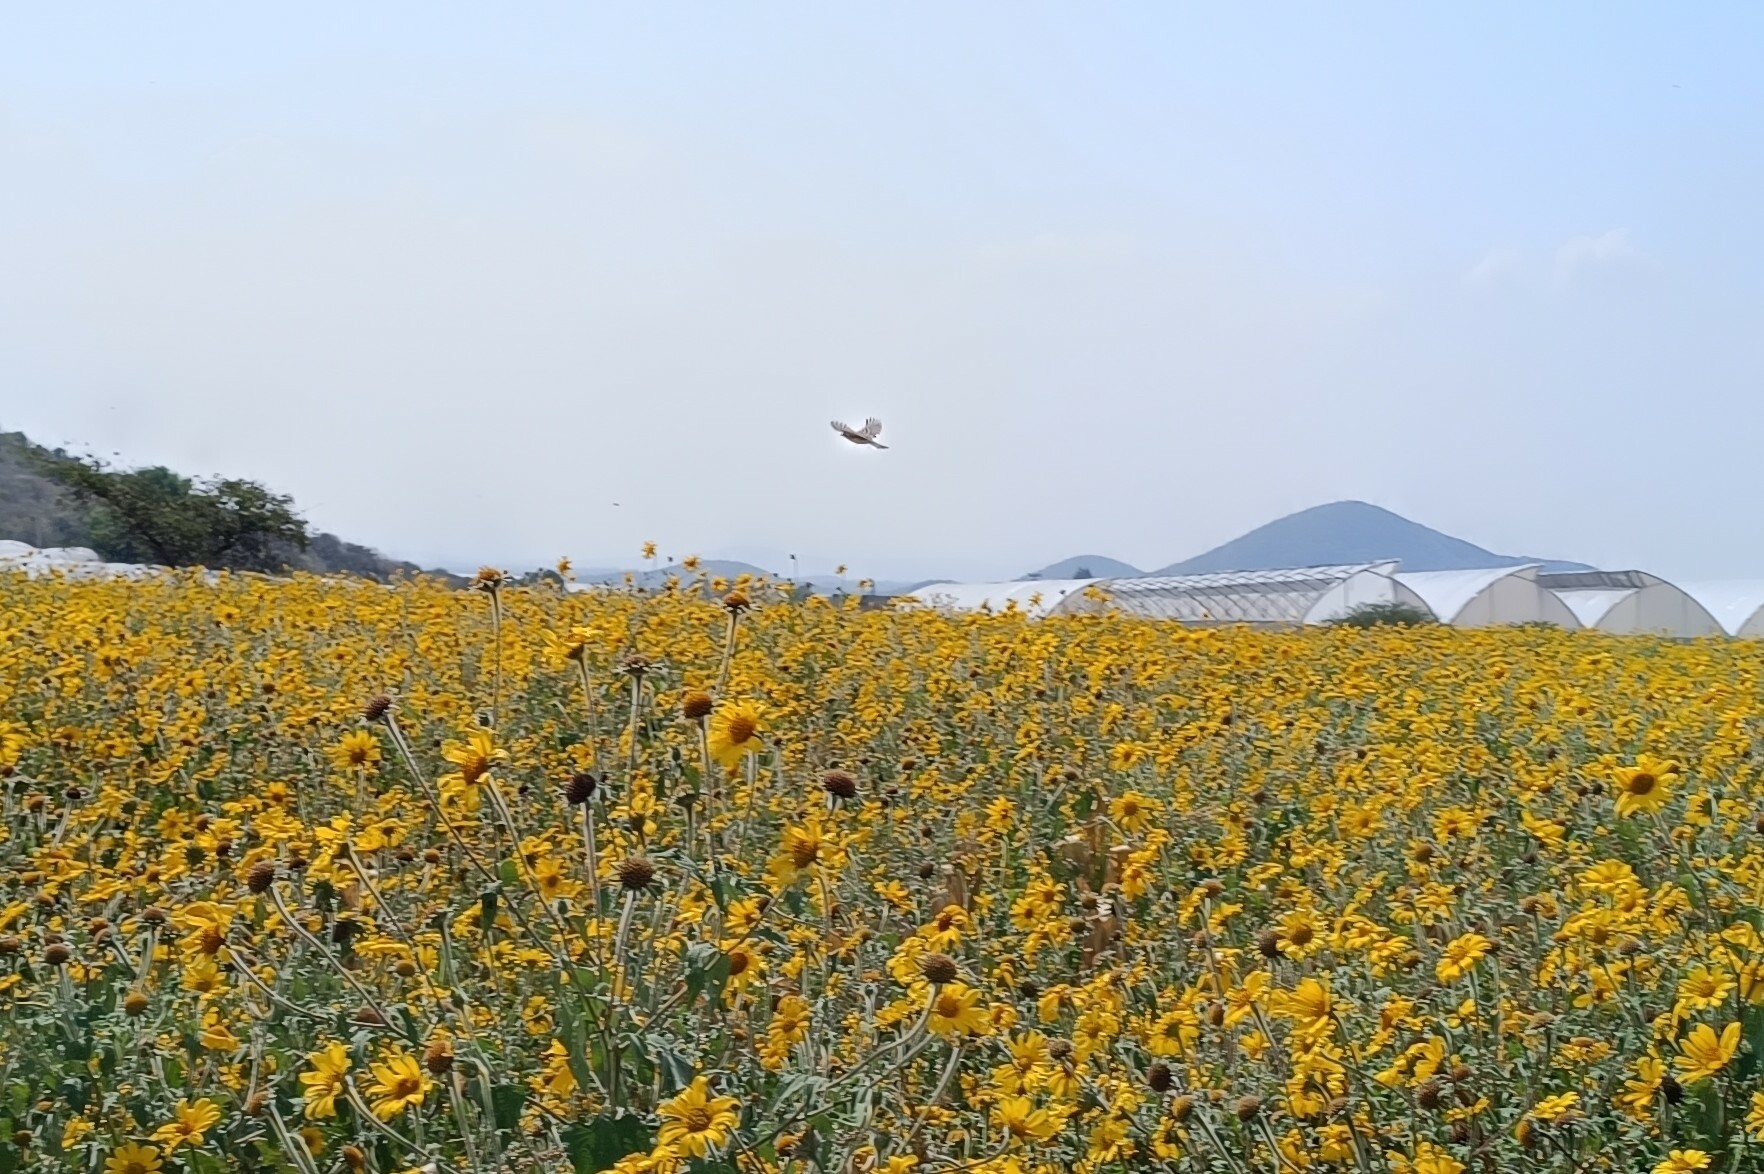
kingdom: Plantae
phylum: Tracheophyta
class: Magnoliopsida
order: Asterales
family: Asteraceae
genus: Tithonia
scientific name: Tithonia tubaeformis
